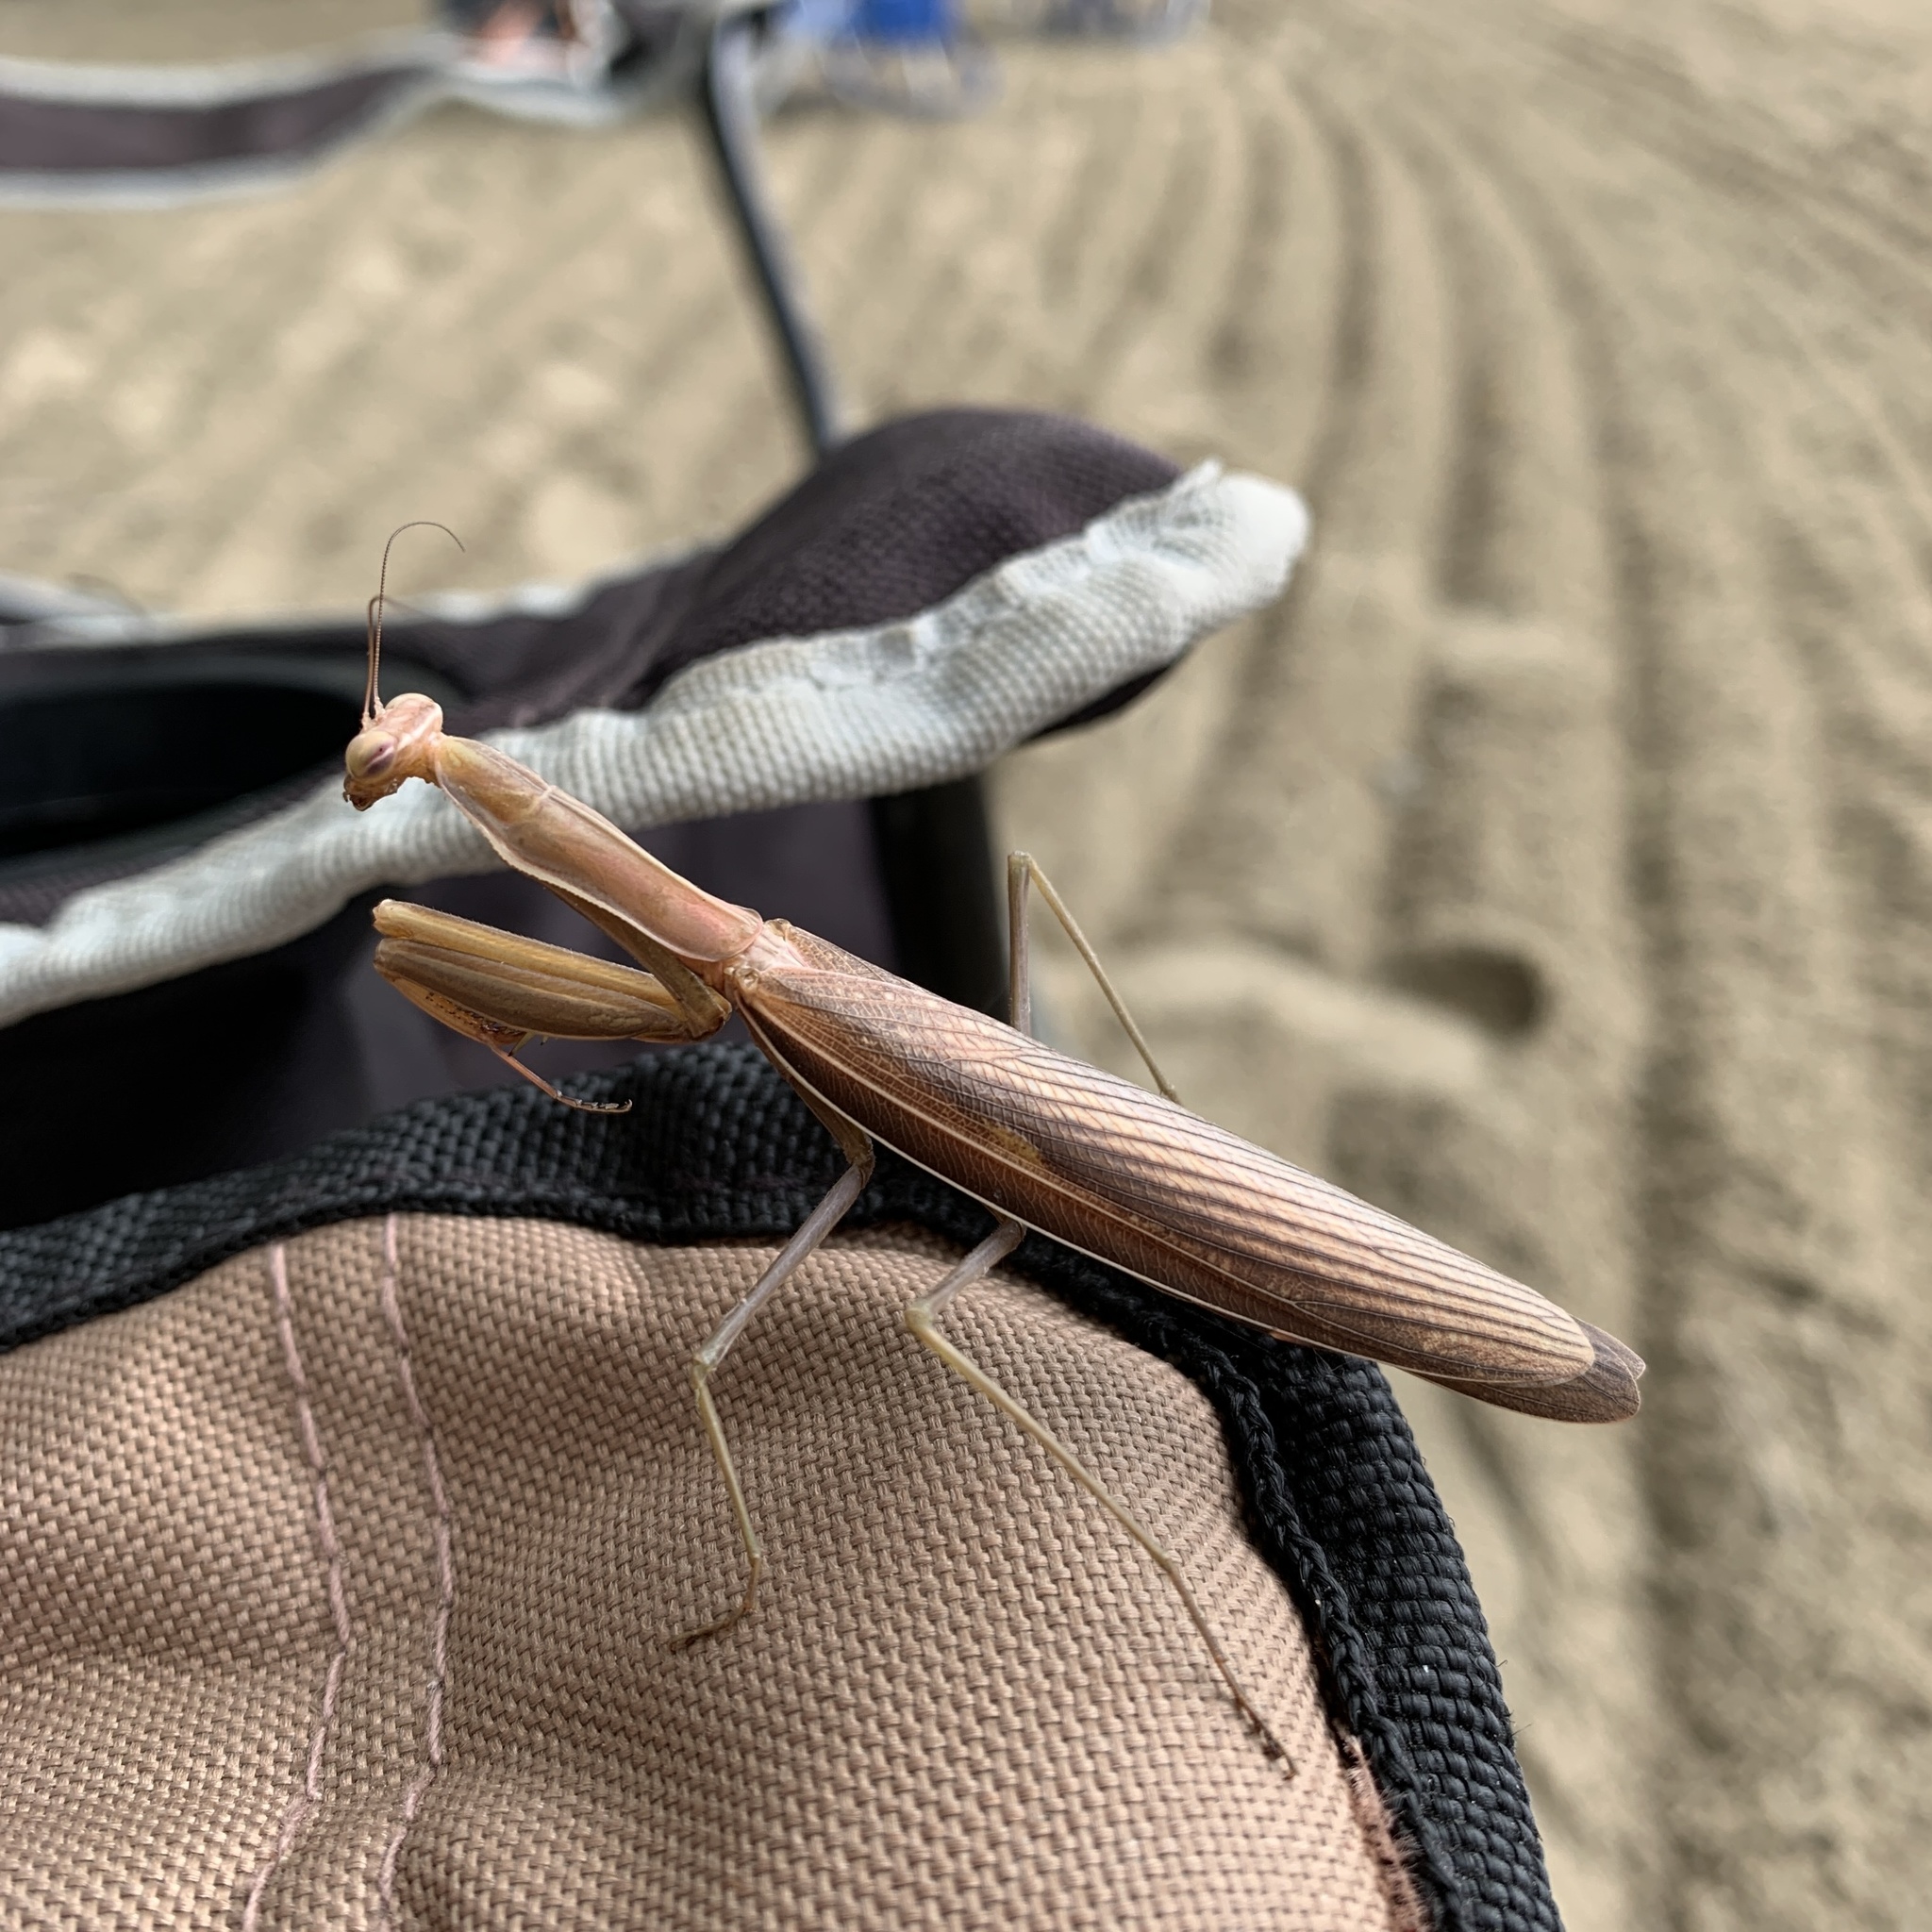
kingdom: Animalia
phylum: Arthropoda
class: Insecta
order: Mantodea
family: Mantidae
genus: Mantis
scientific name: Mantis religiosa
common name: Praying mantis
